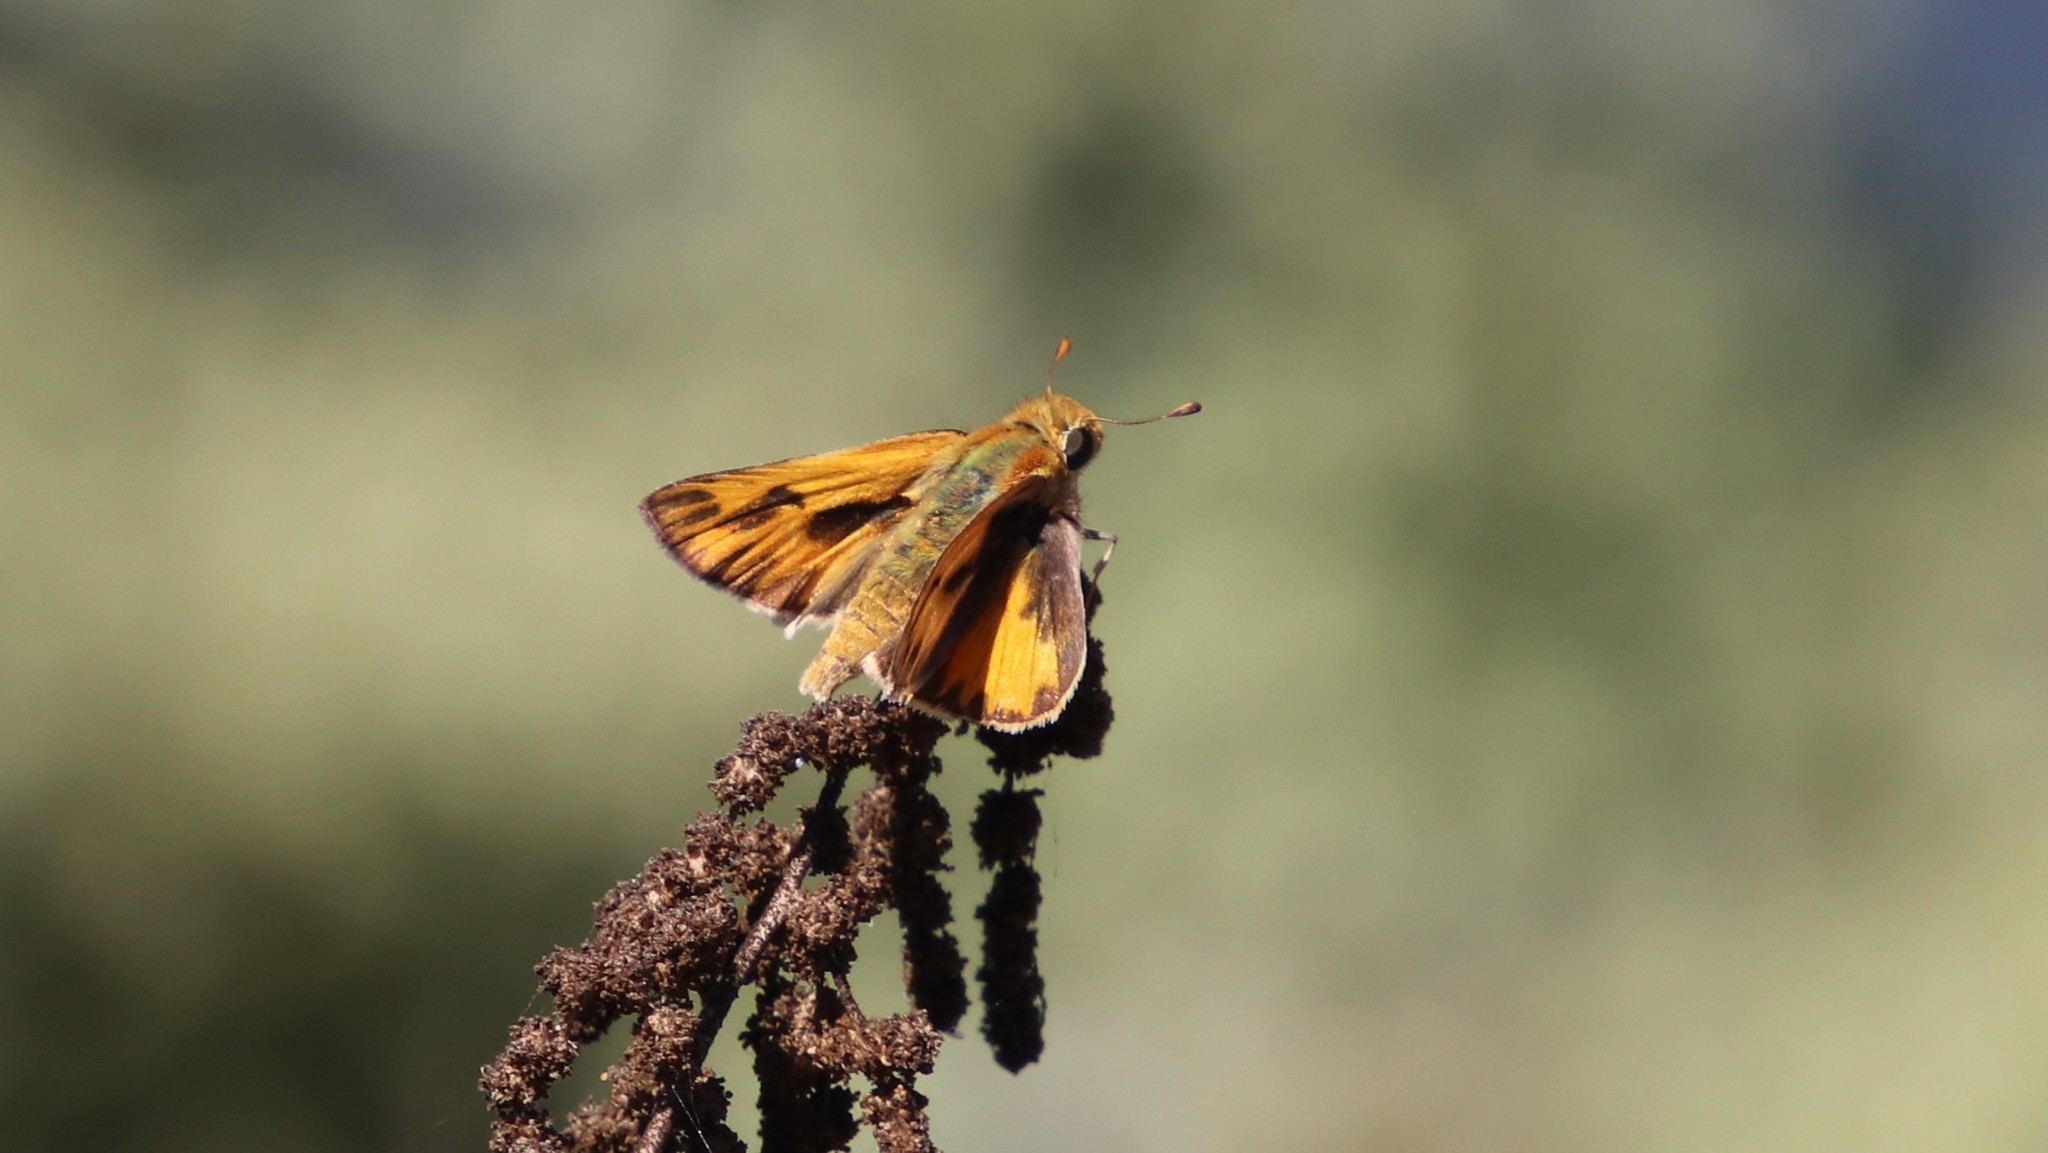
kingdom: Animalia
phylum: Arthropoda
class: Insecta
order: Lepidoptera
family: Hesperiidae
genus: Hylephila
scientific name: Hylephila phyleus
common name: Fiery skipper
